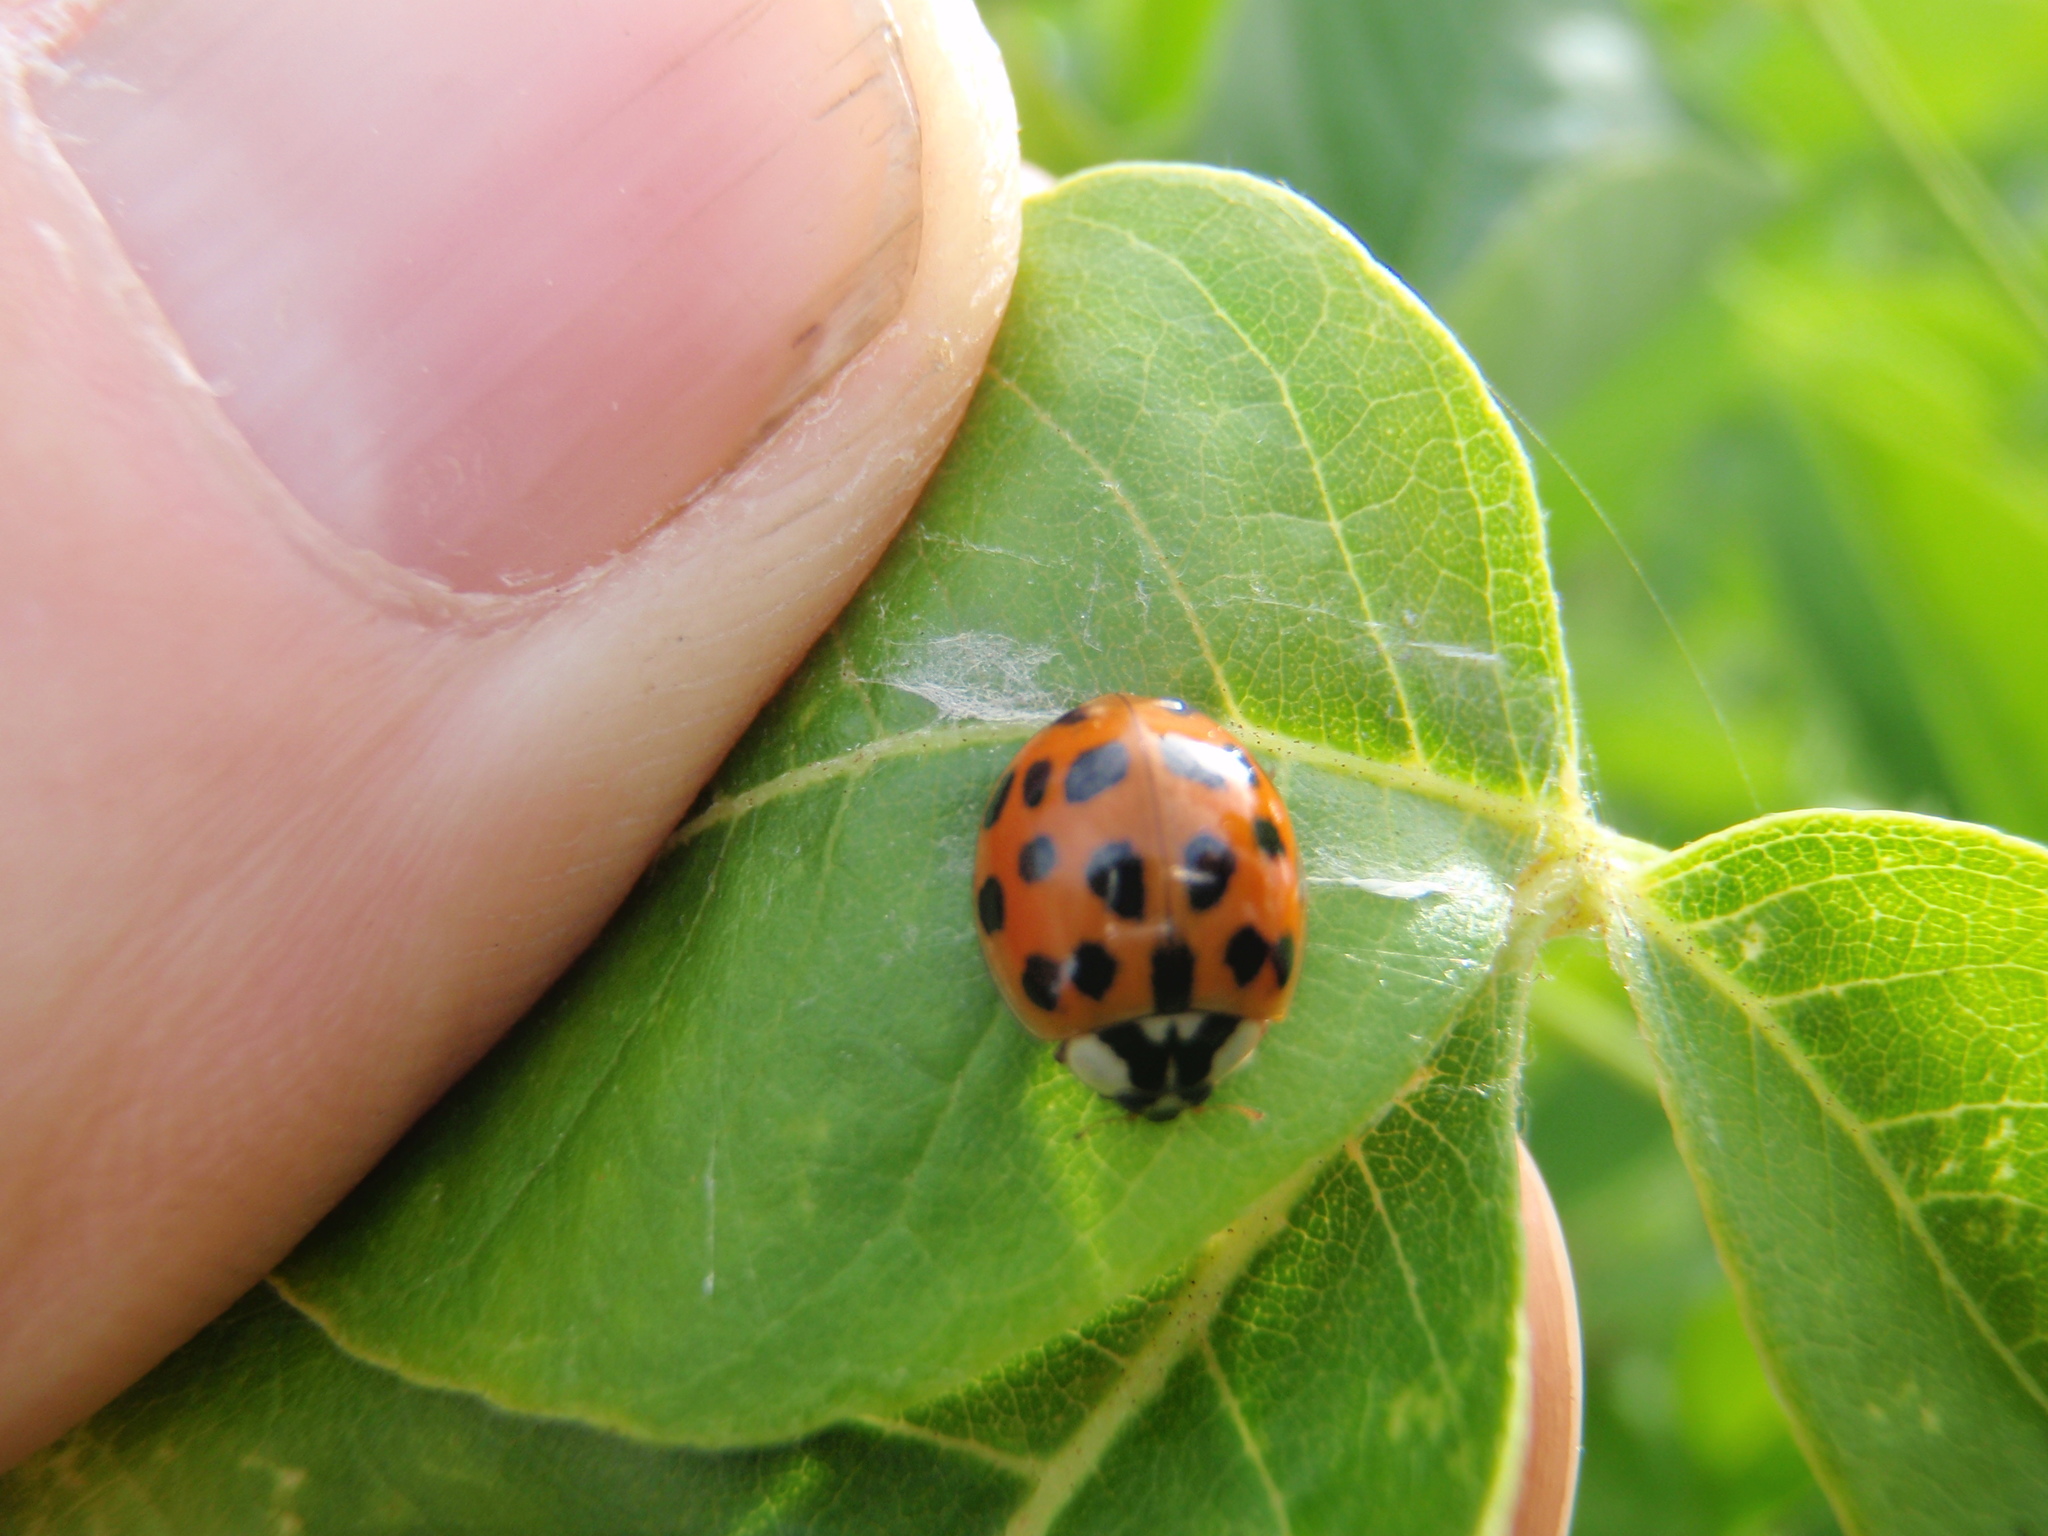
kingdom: Animalia
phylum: Arthropoda
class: Insecta
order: Coleoptera
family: Coccinellidae
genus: Harmonia
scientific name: Harmonia axyridis
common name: Harlequin ladybird
